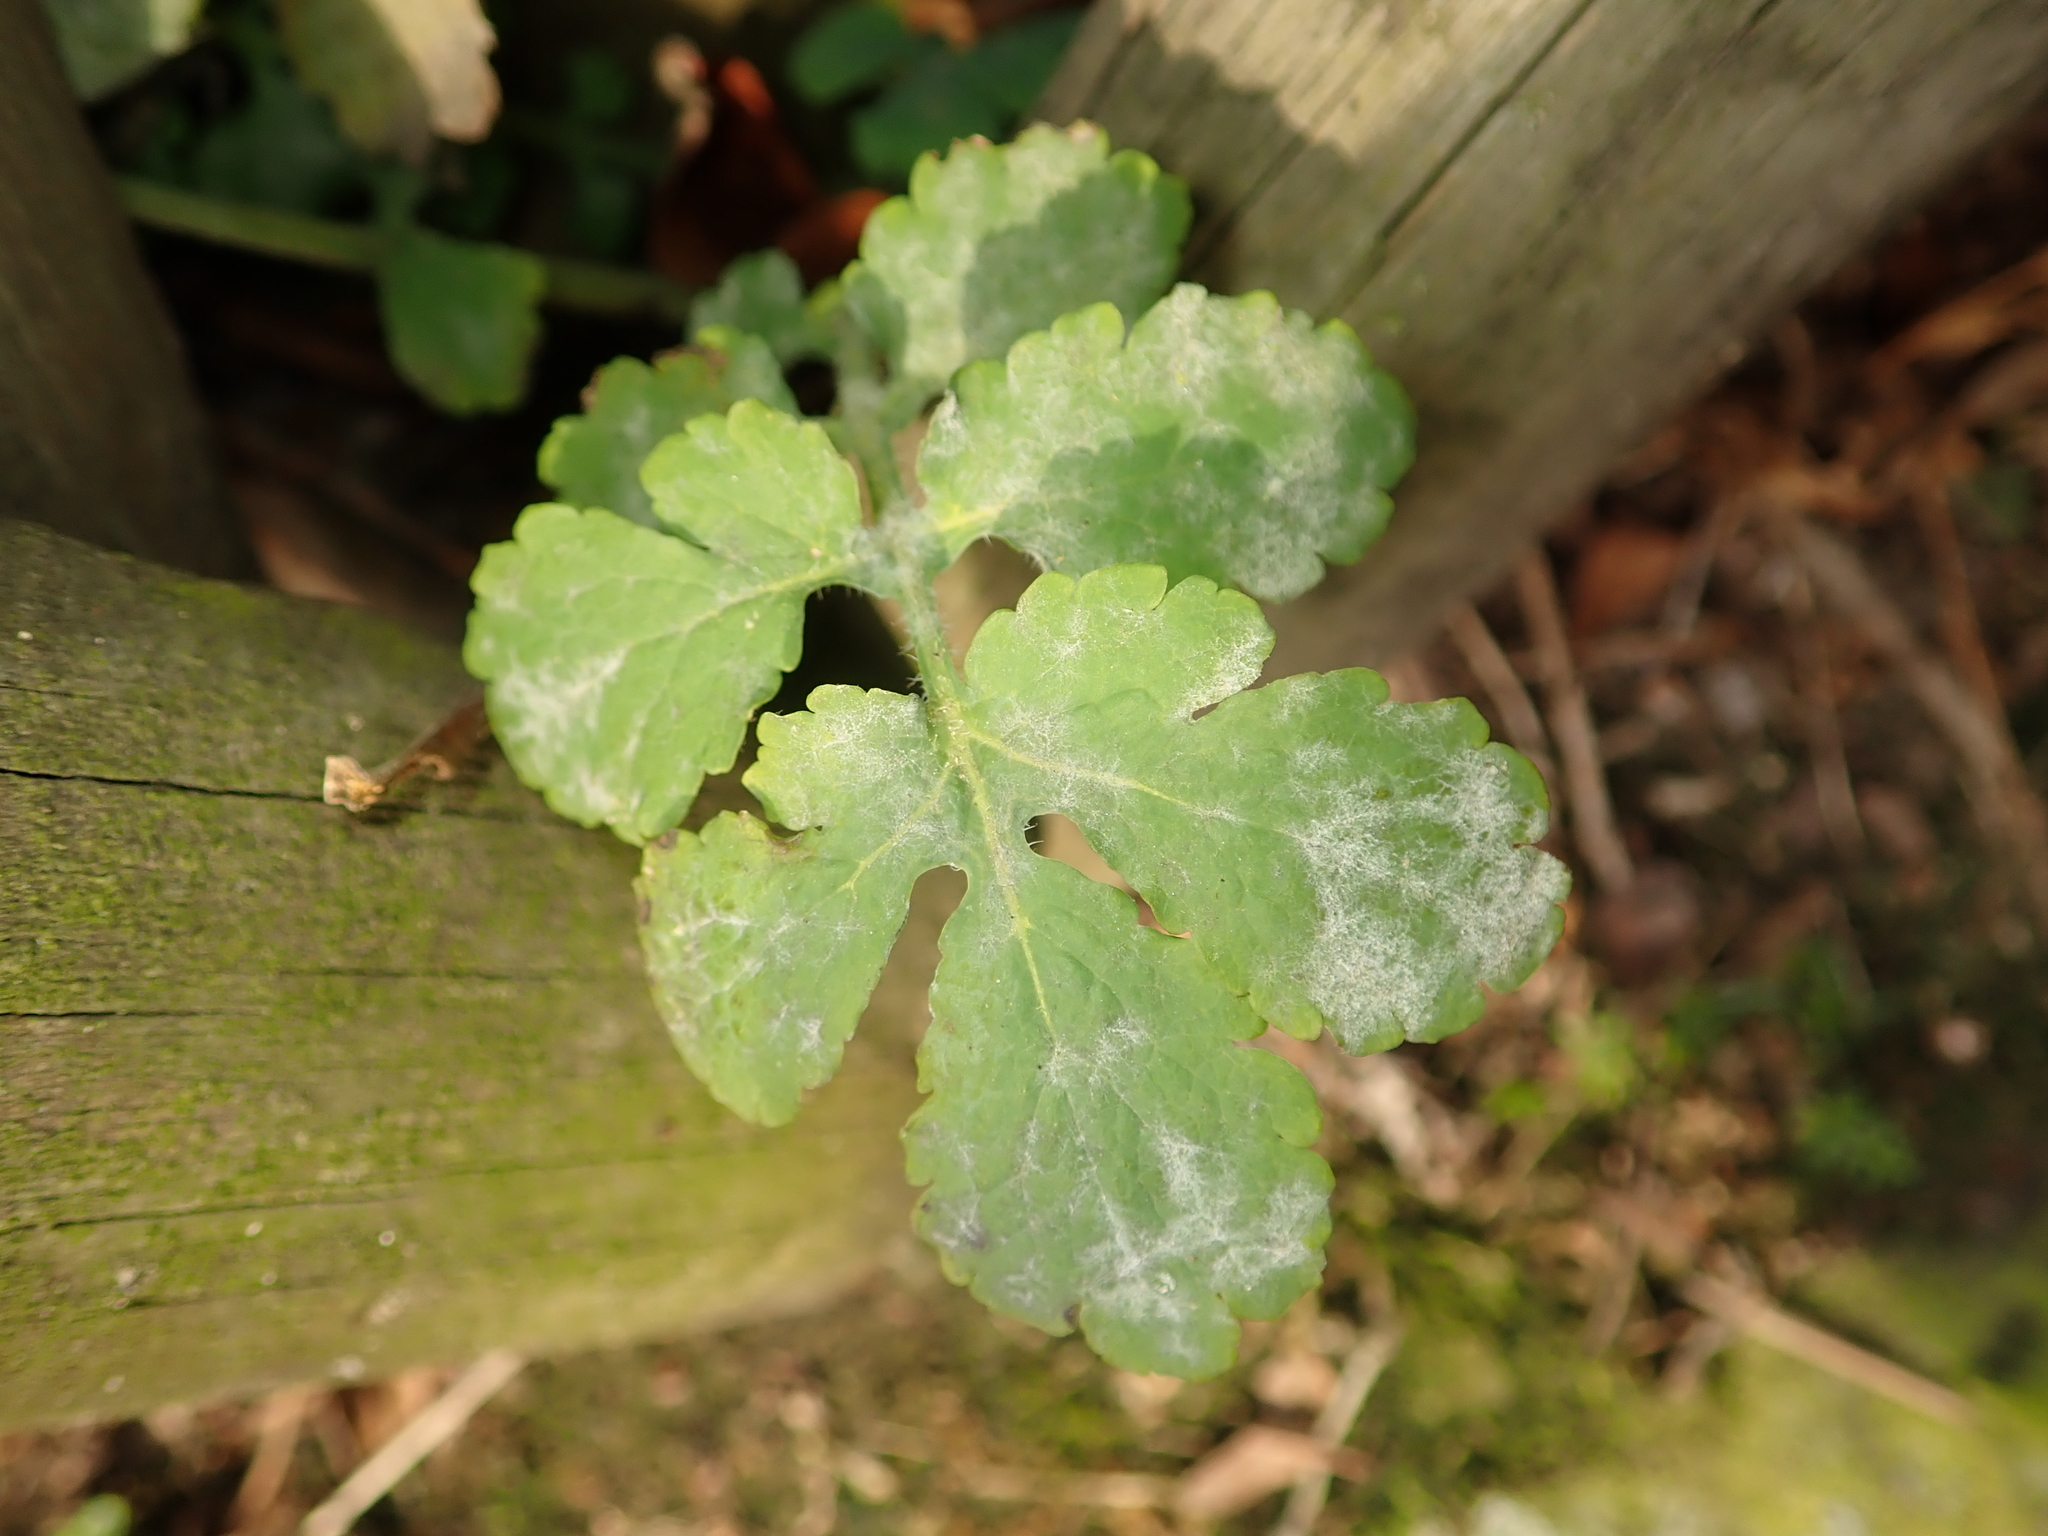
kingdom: Plantae
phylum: Tracheophyta
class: Magnoliopsida
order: Ranunculales
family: Papaveraceae
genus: Chelidonium
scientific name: Chelidonium majus
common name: Greater celandine
